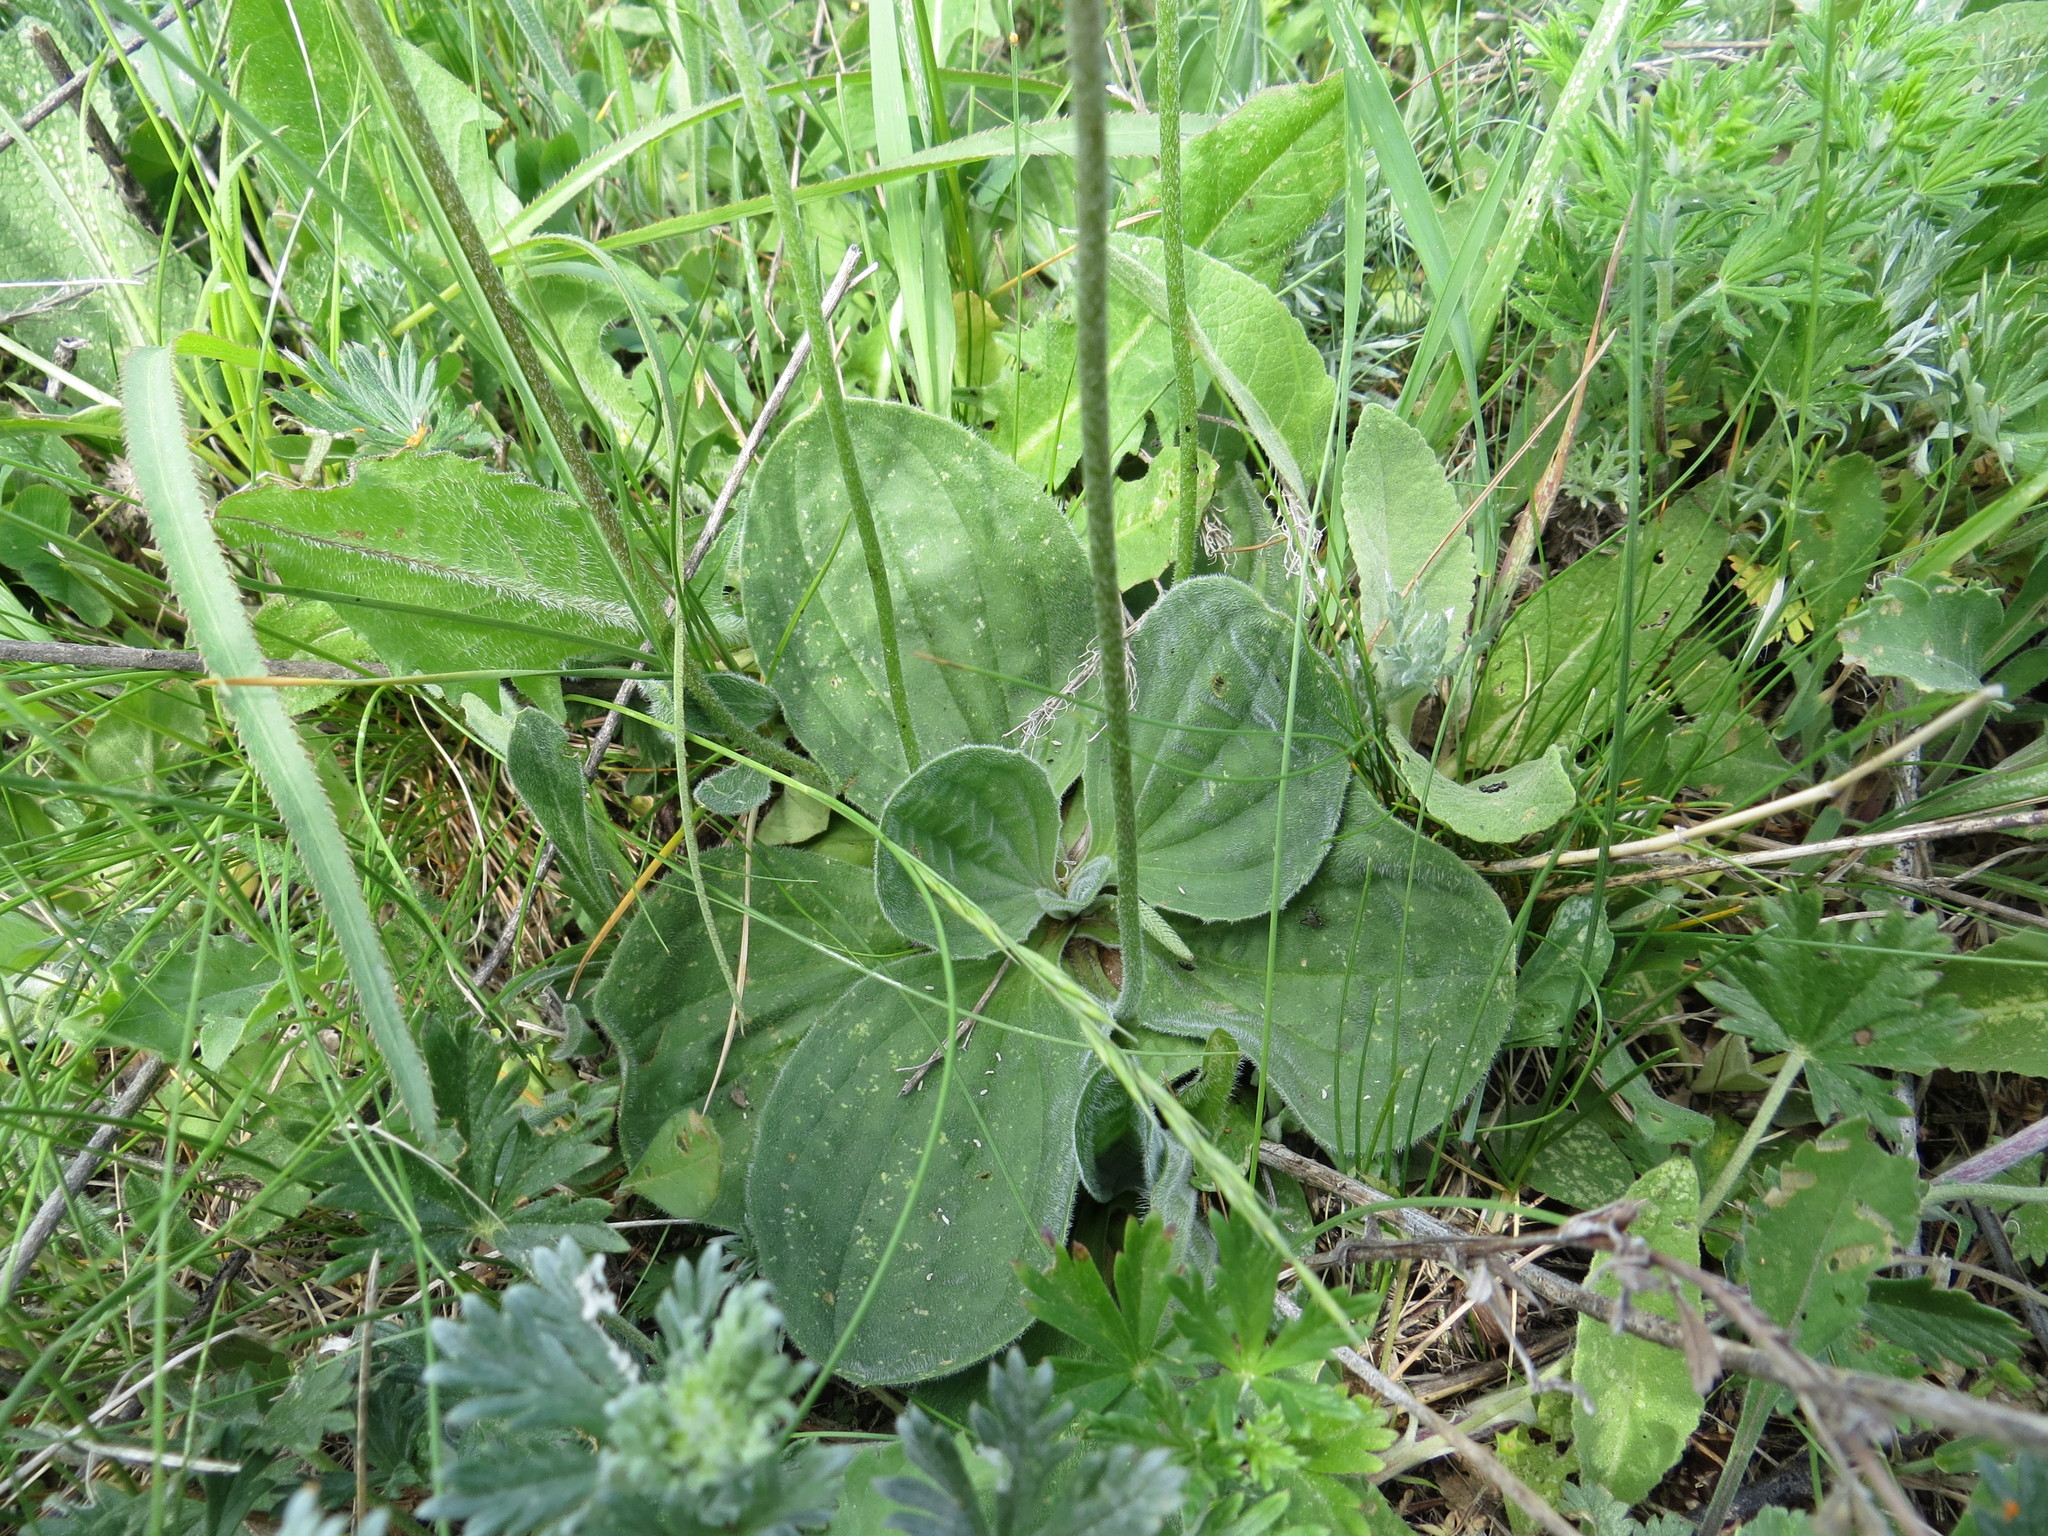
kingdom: Plantae
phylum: Tracheophyta
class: Magnoliopsida
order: Lamiales
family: Plantaginaceae
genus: Plantago
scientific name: Plantago media
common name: Hoary plantain
